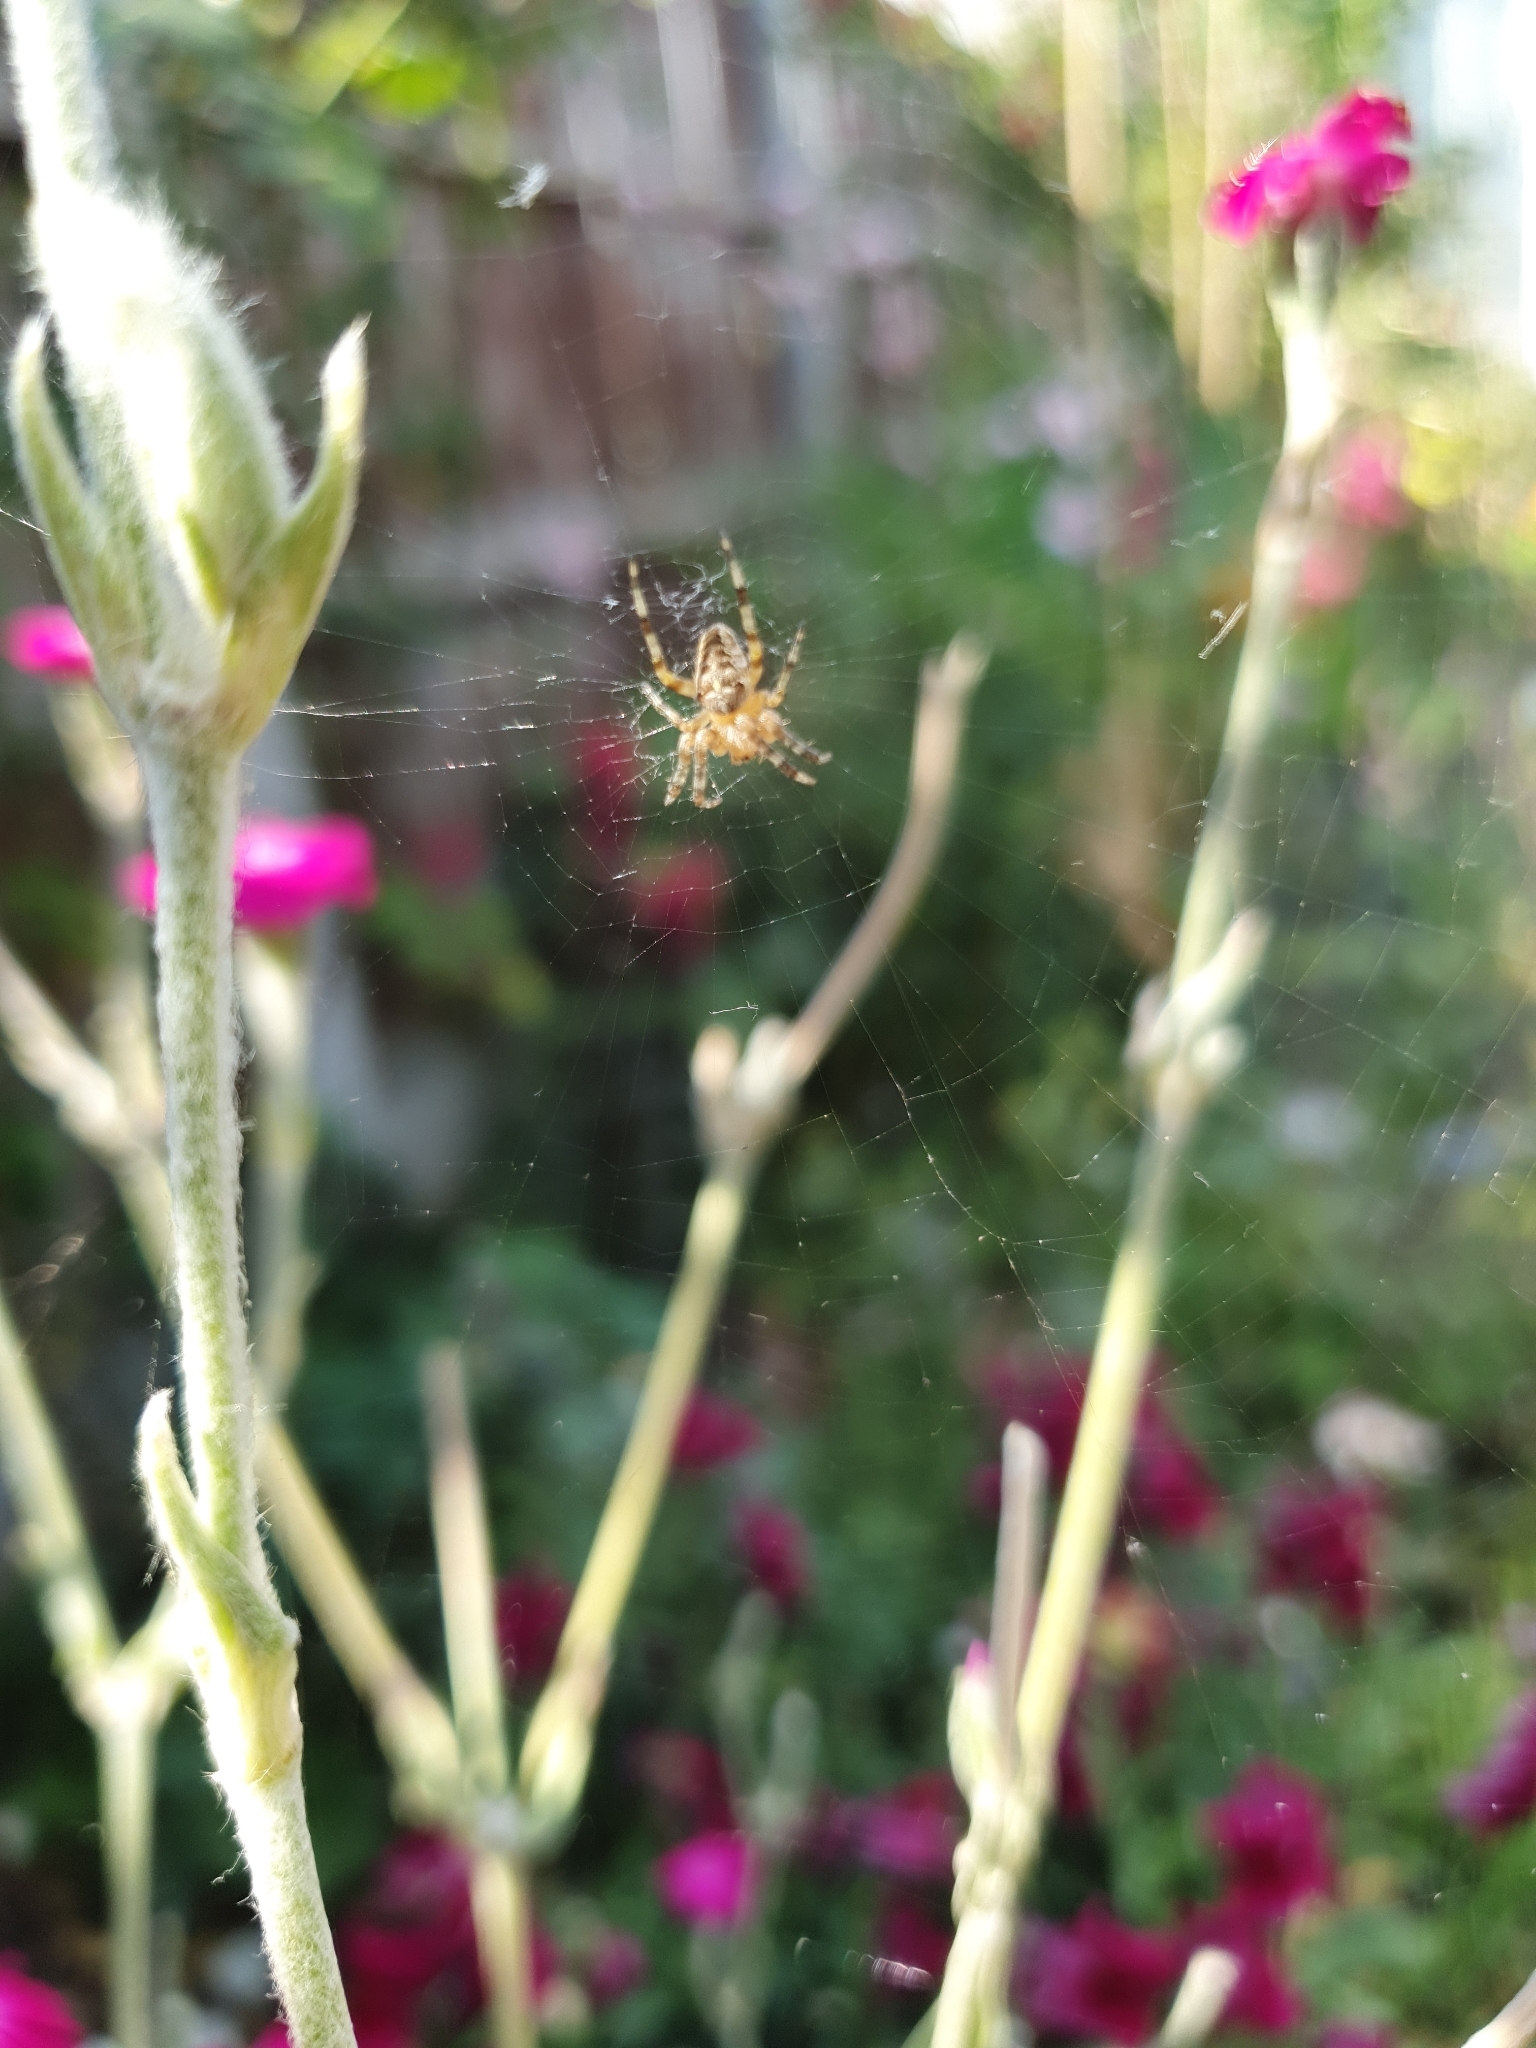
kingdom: Animalia
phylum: Arthropoda
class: Arachnida
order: Araneae
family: Araneidae
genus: Araneus
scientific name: Araneus diadematus
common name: Cross orbweaver
